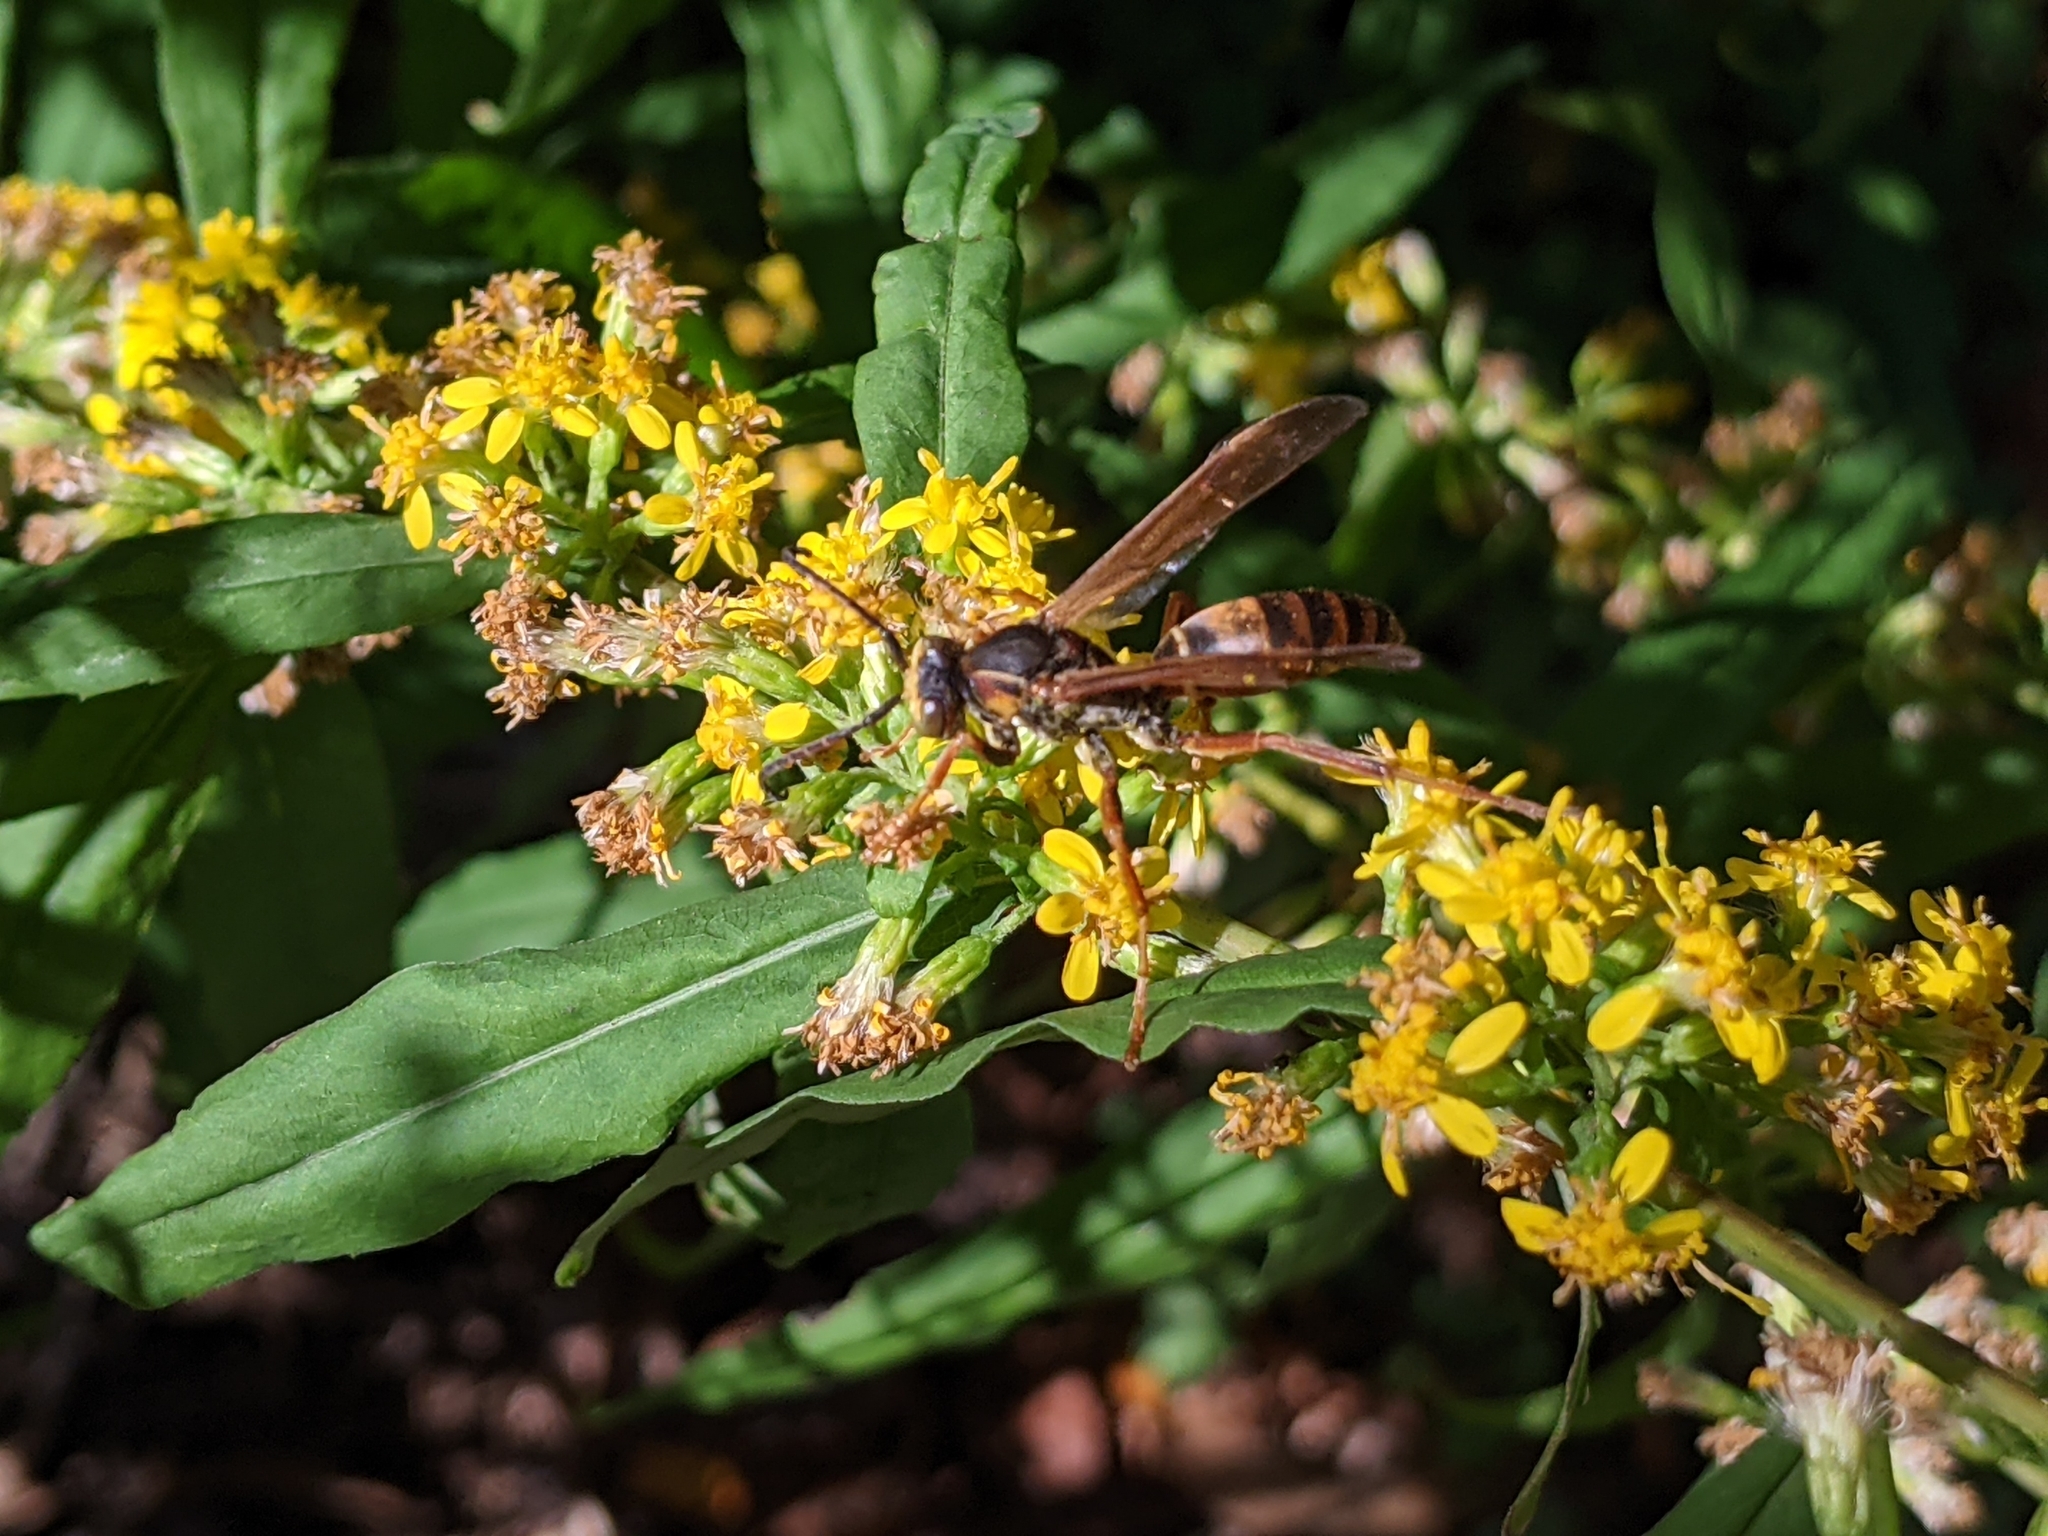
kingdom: Animalia
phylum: Arthropoda
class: Insecta
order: Hymenoptera
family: Eumenidae
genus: Polistes
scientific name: Polistes fuscatus
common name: Dark paper wasp
